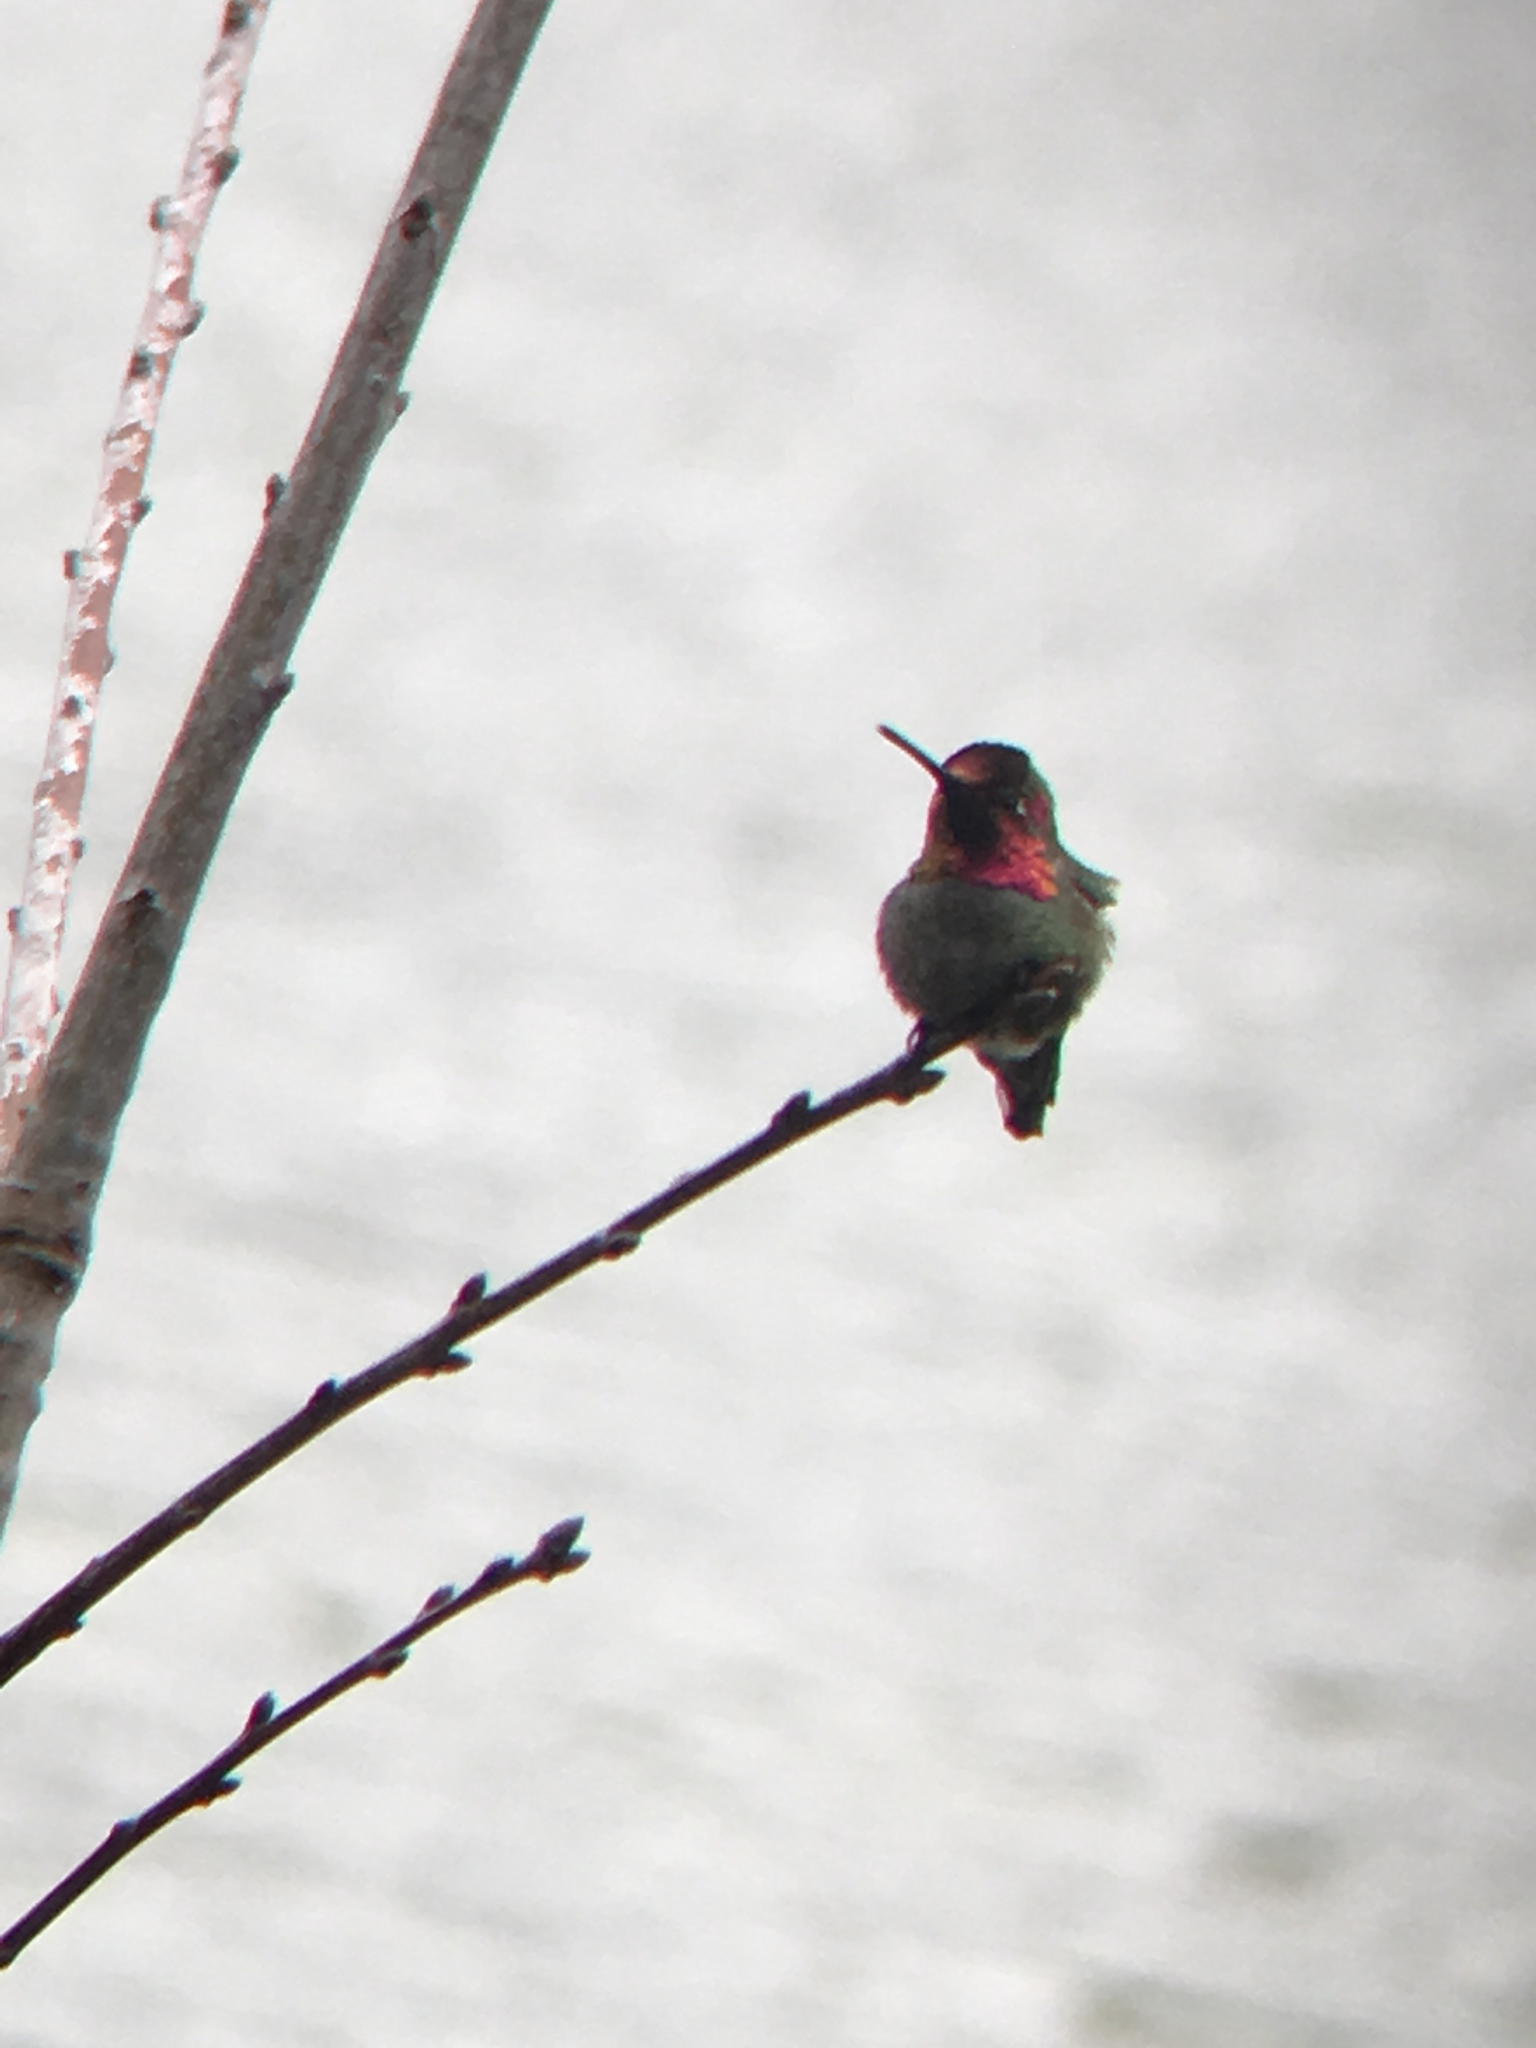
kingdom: Animalia
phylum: Chordata
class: Aves
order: Apodiformes
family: Trochilidae
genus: Calypte
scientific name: Calypte anna
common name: Anna's hummingbird
